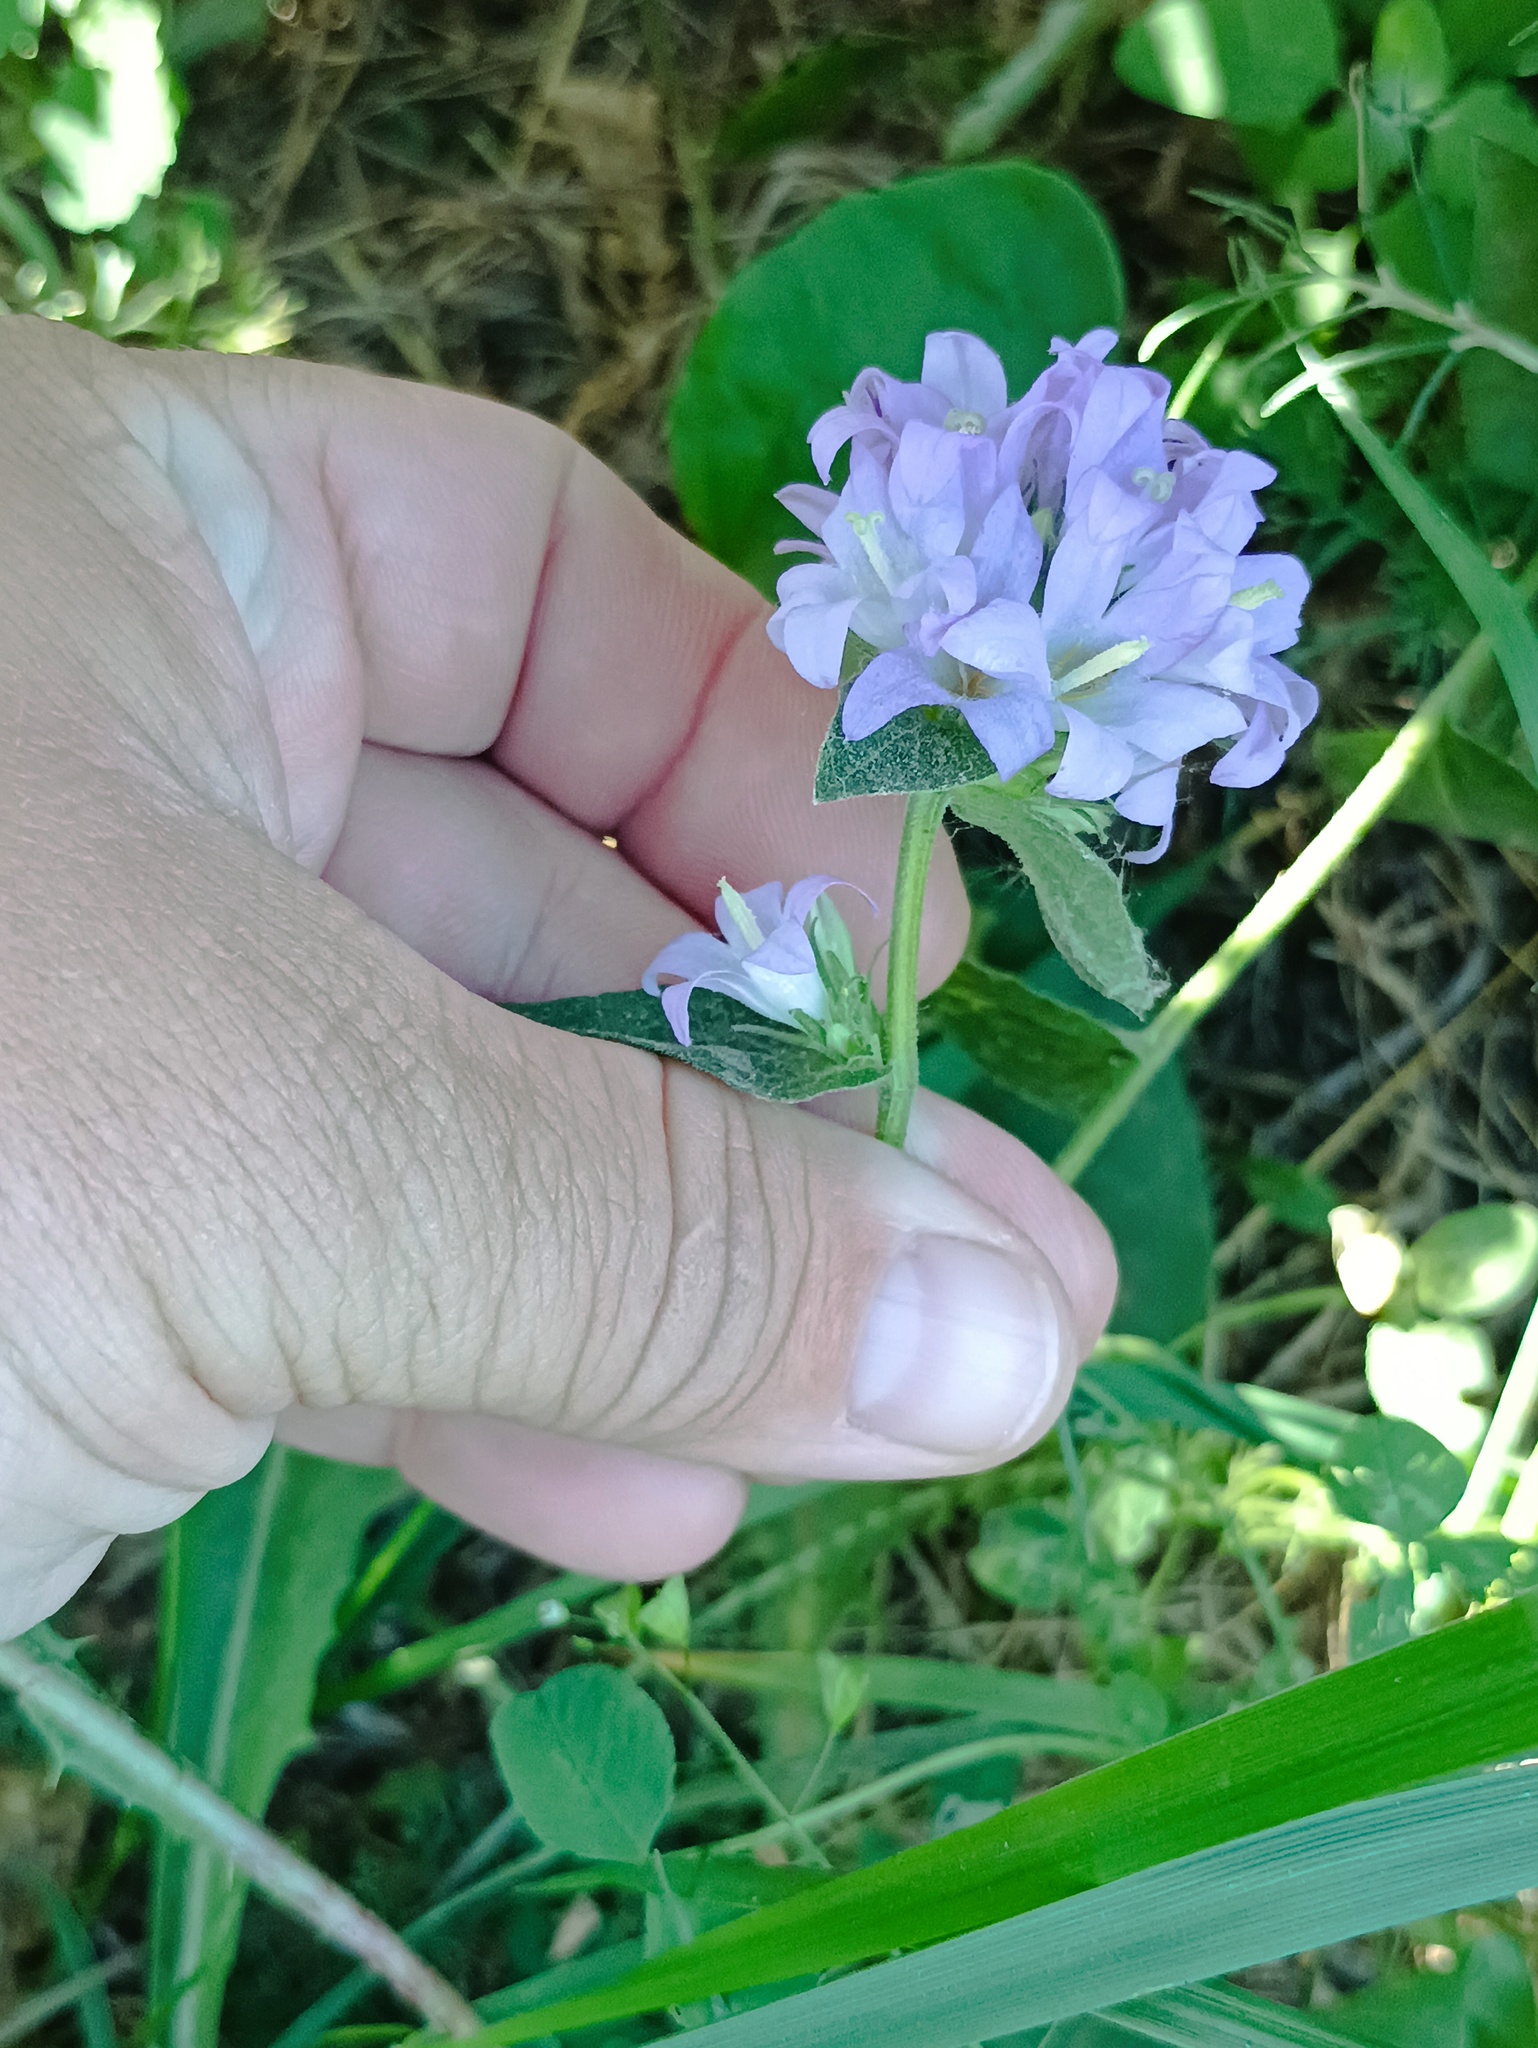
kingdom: Plantae
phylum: Tracheophyta
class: Magnoliopsida
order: Asterales
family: Campanulaceae
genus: Campanula
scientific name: Campanula glomerata
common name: Clustered bellflower
